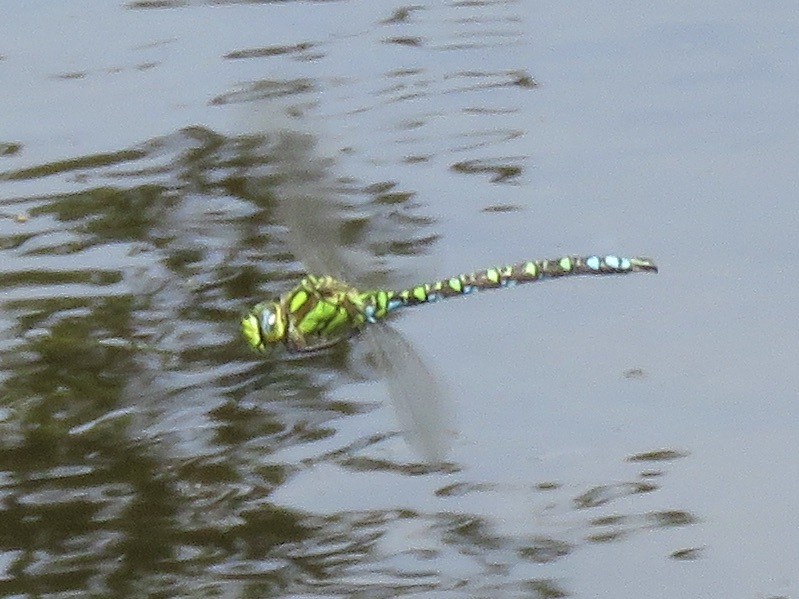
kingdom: Animalia
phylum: Arthropoda
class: Insecta
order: Odonata
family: Aeshnidae
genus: Aeshna
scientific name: Aeshna cyanea
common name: Southern hawker
